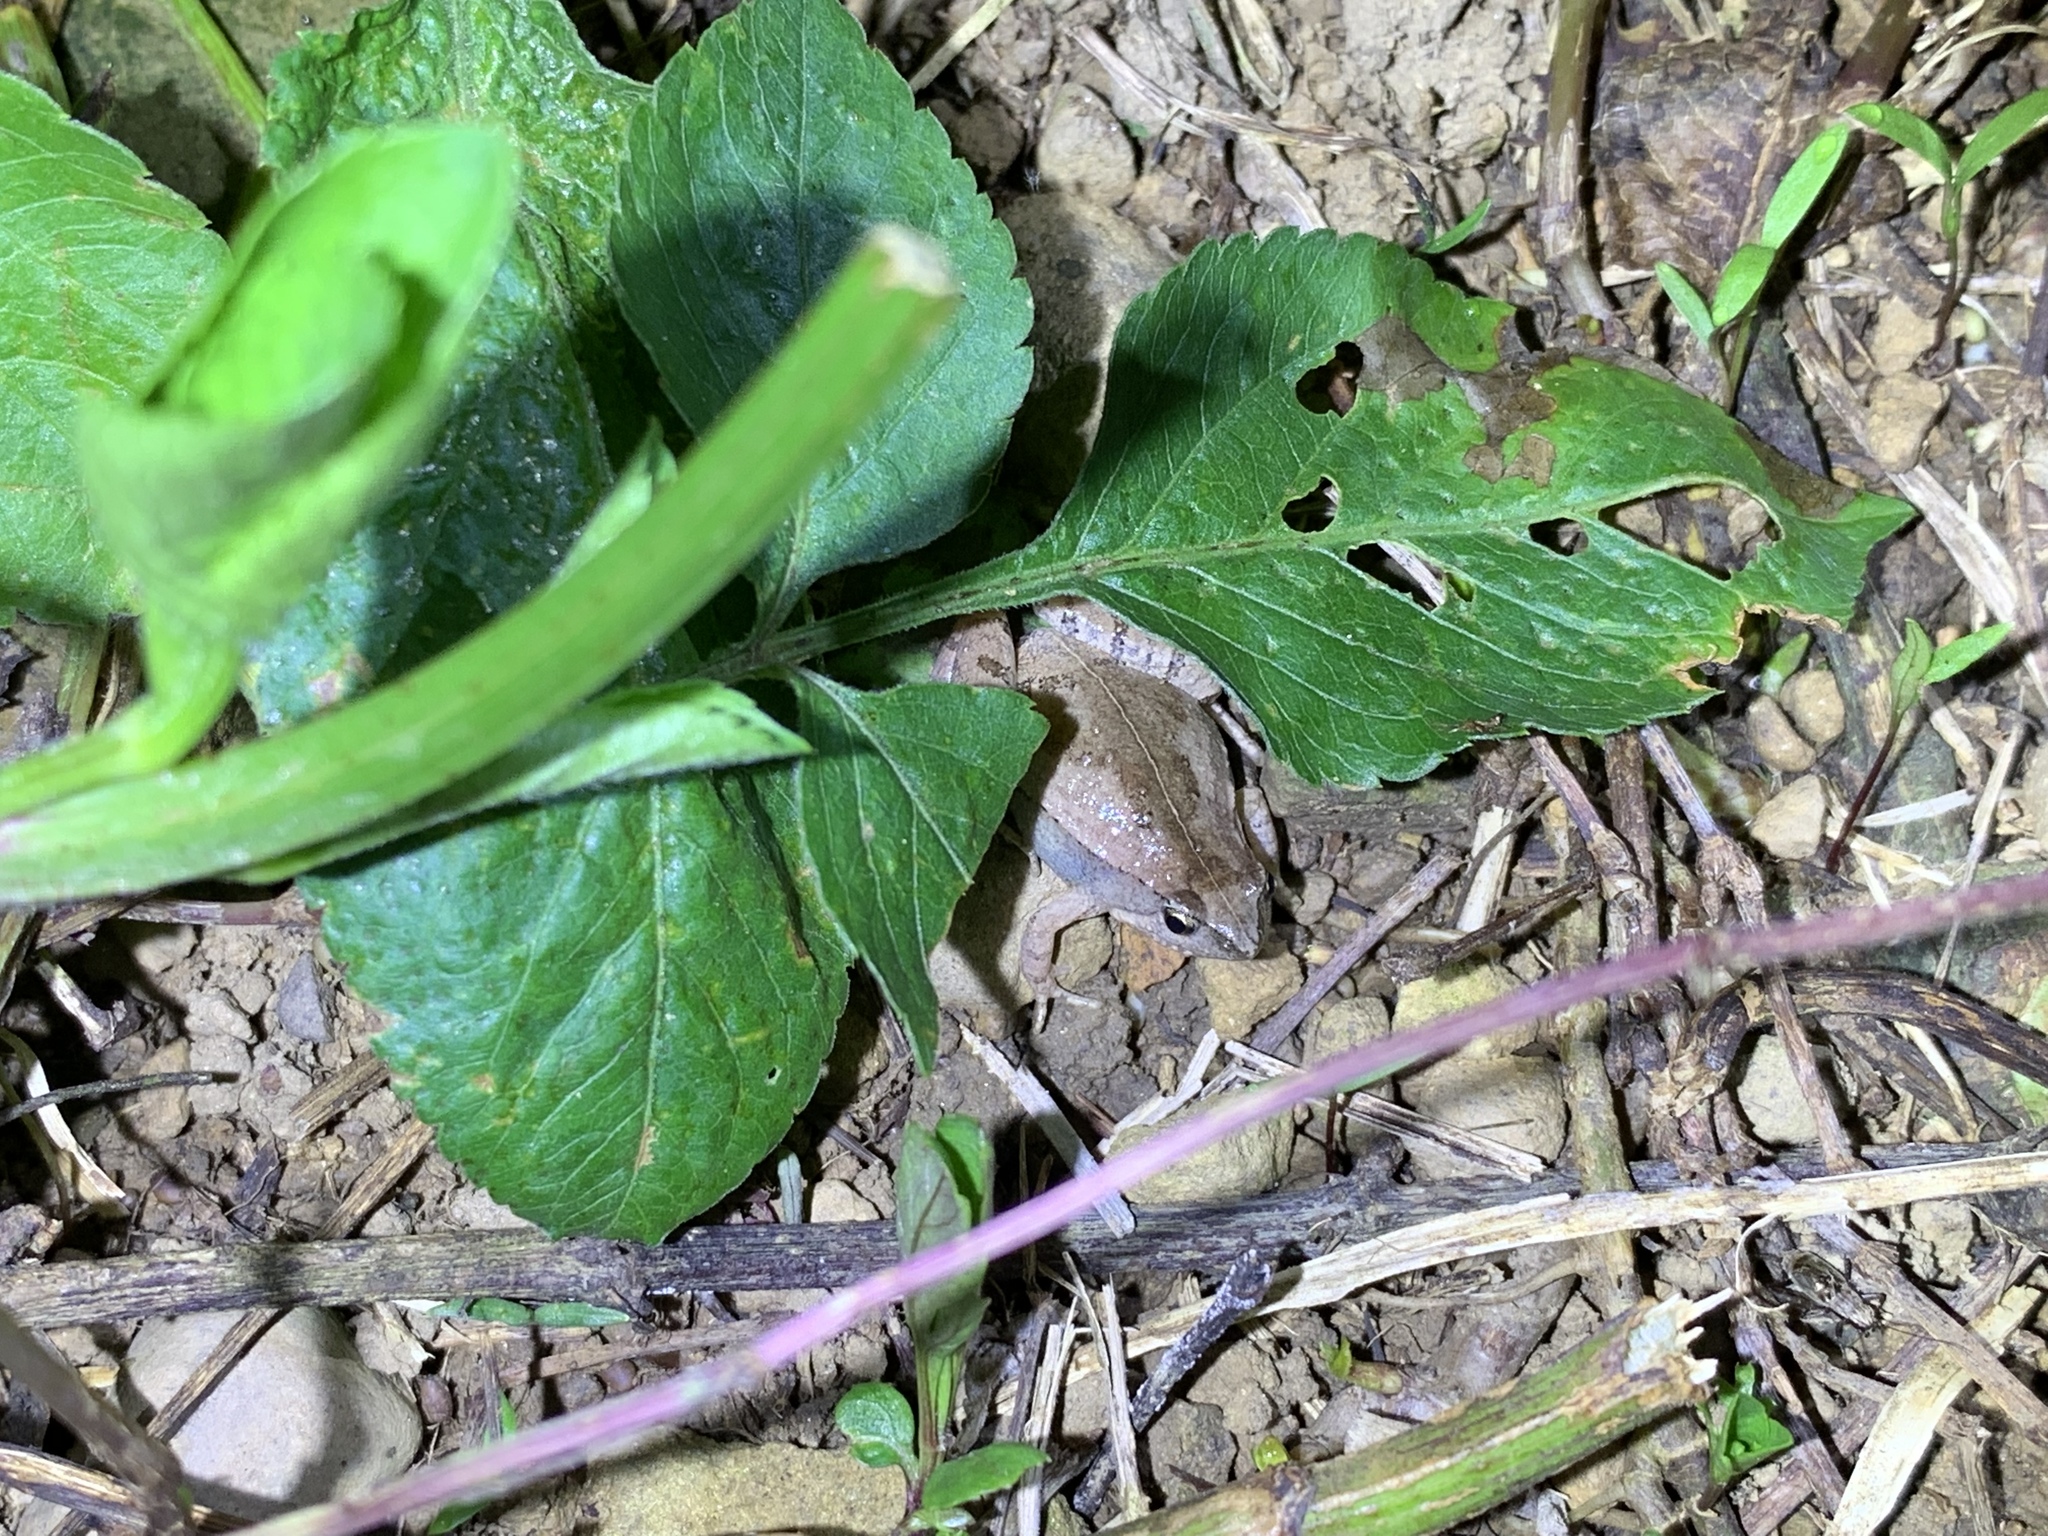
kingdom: Animalia
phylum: Chordata
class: Amphibia
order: Anura
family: Microhylidae
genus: Microhyla
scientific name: Microhyla fissipes
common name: Ornate narrow-mouthed frog
